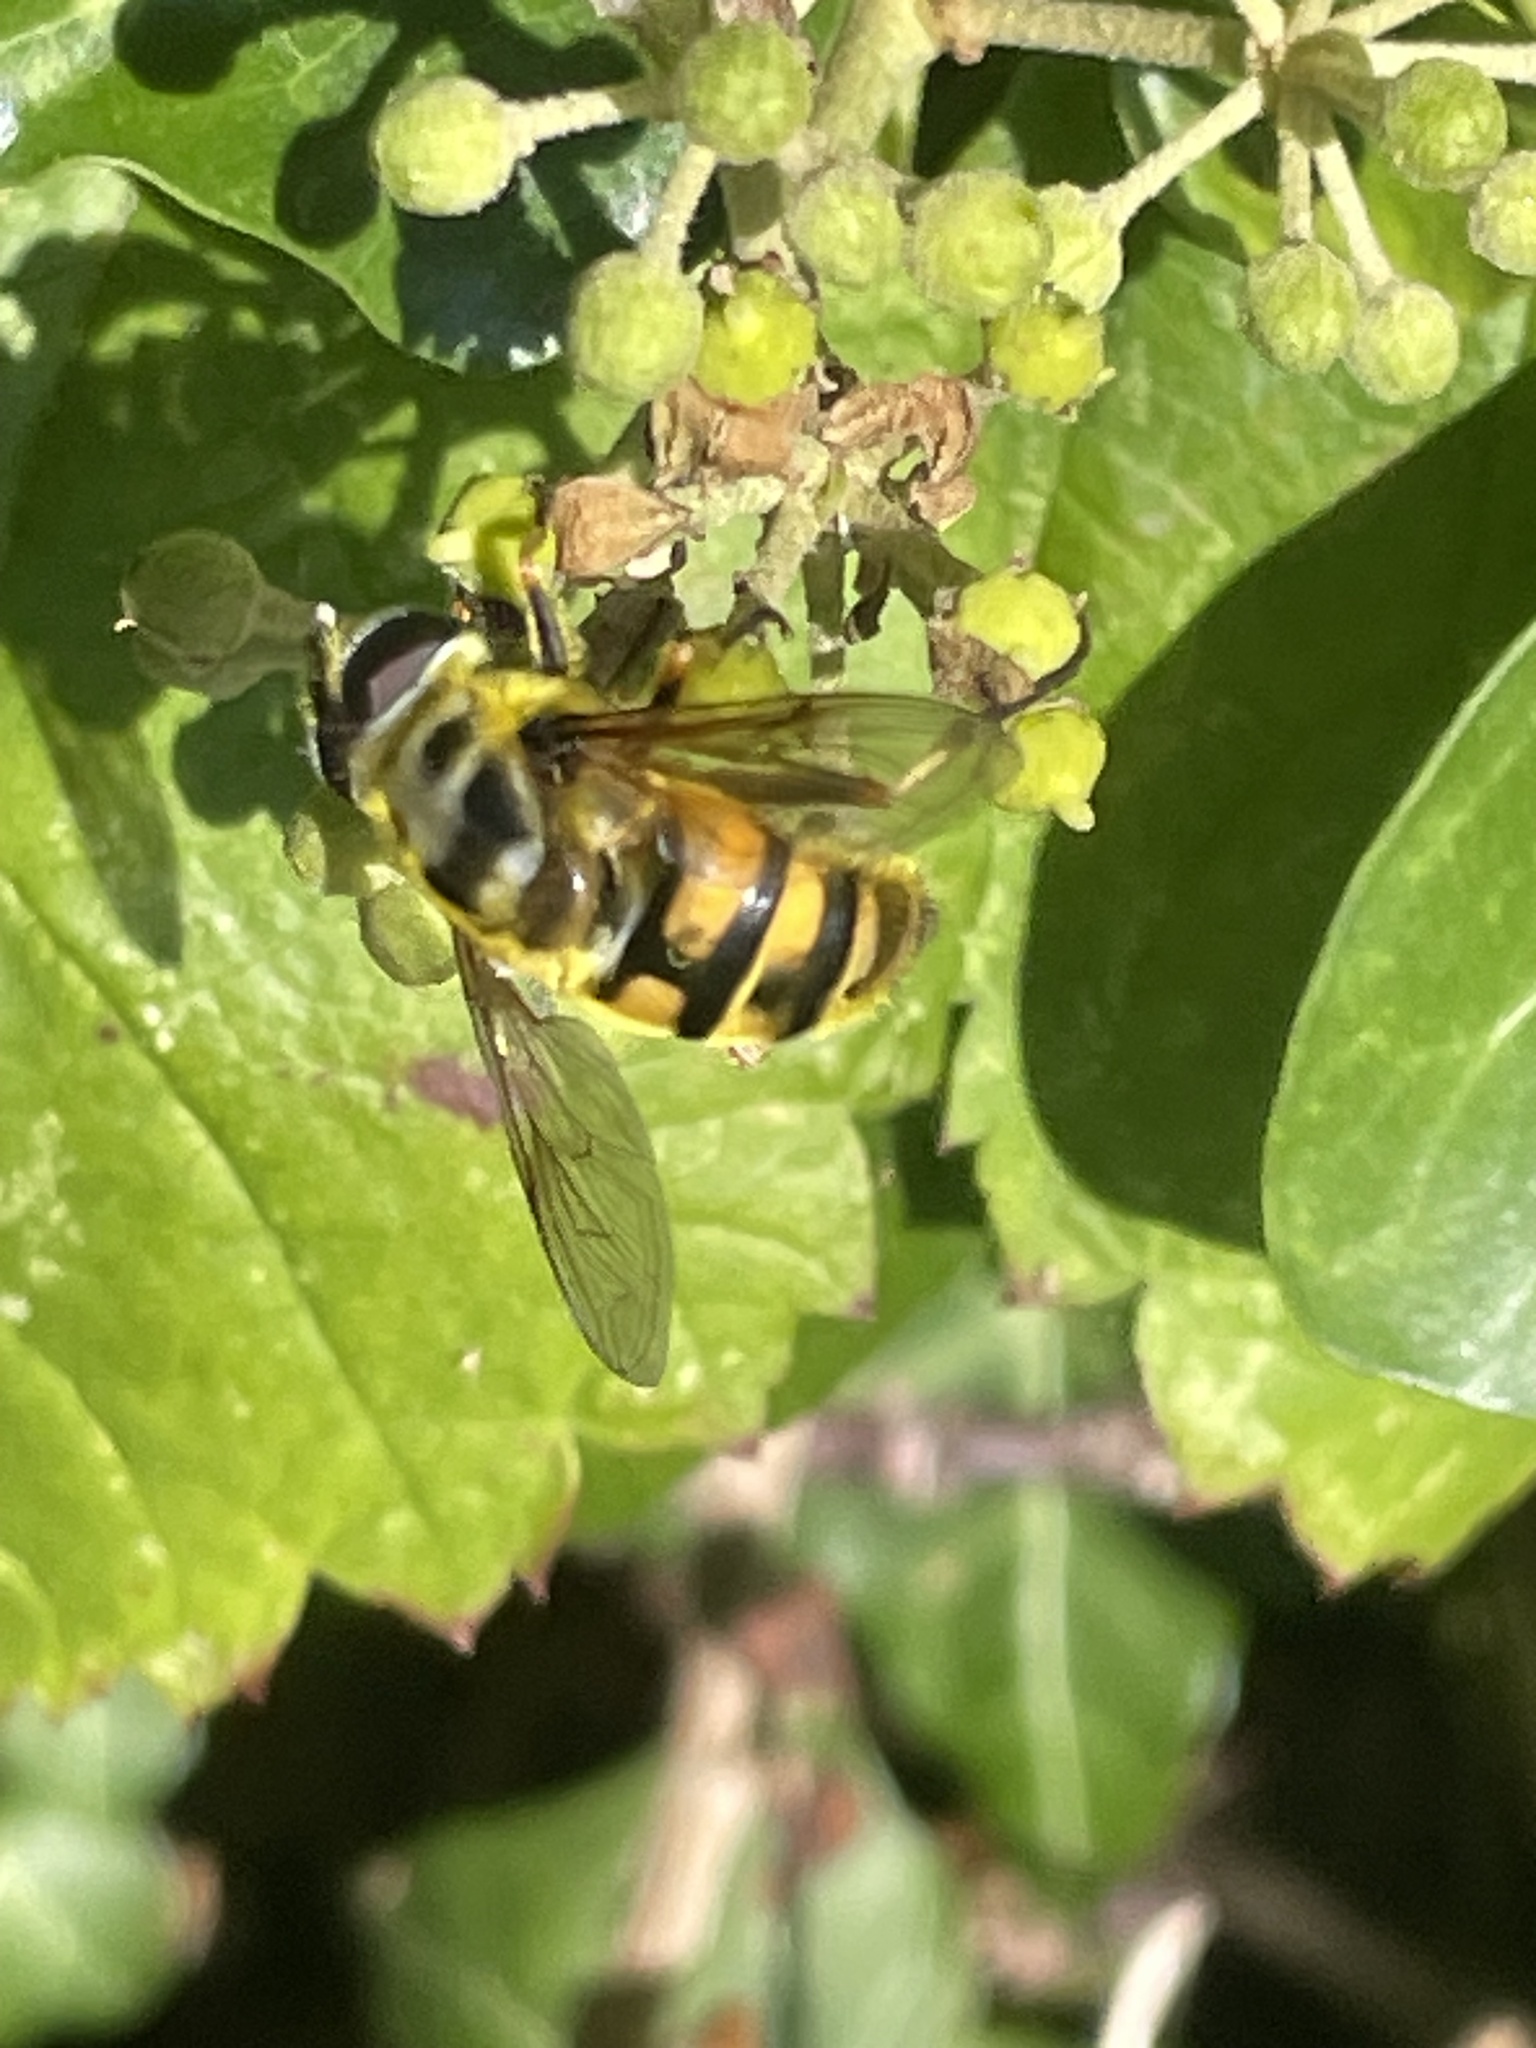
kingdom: Animalia
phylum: Arthropoda
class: Insecta
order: Diptera
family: Syrphidae
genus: Myathropa
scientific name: Myathropa florea
